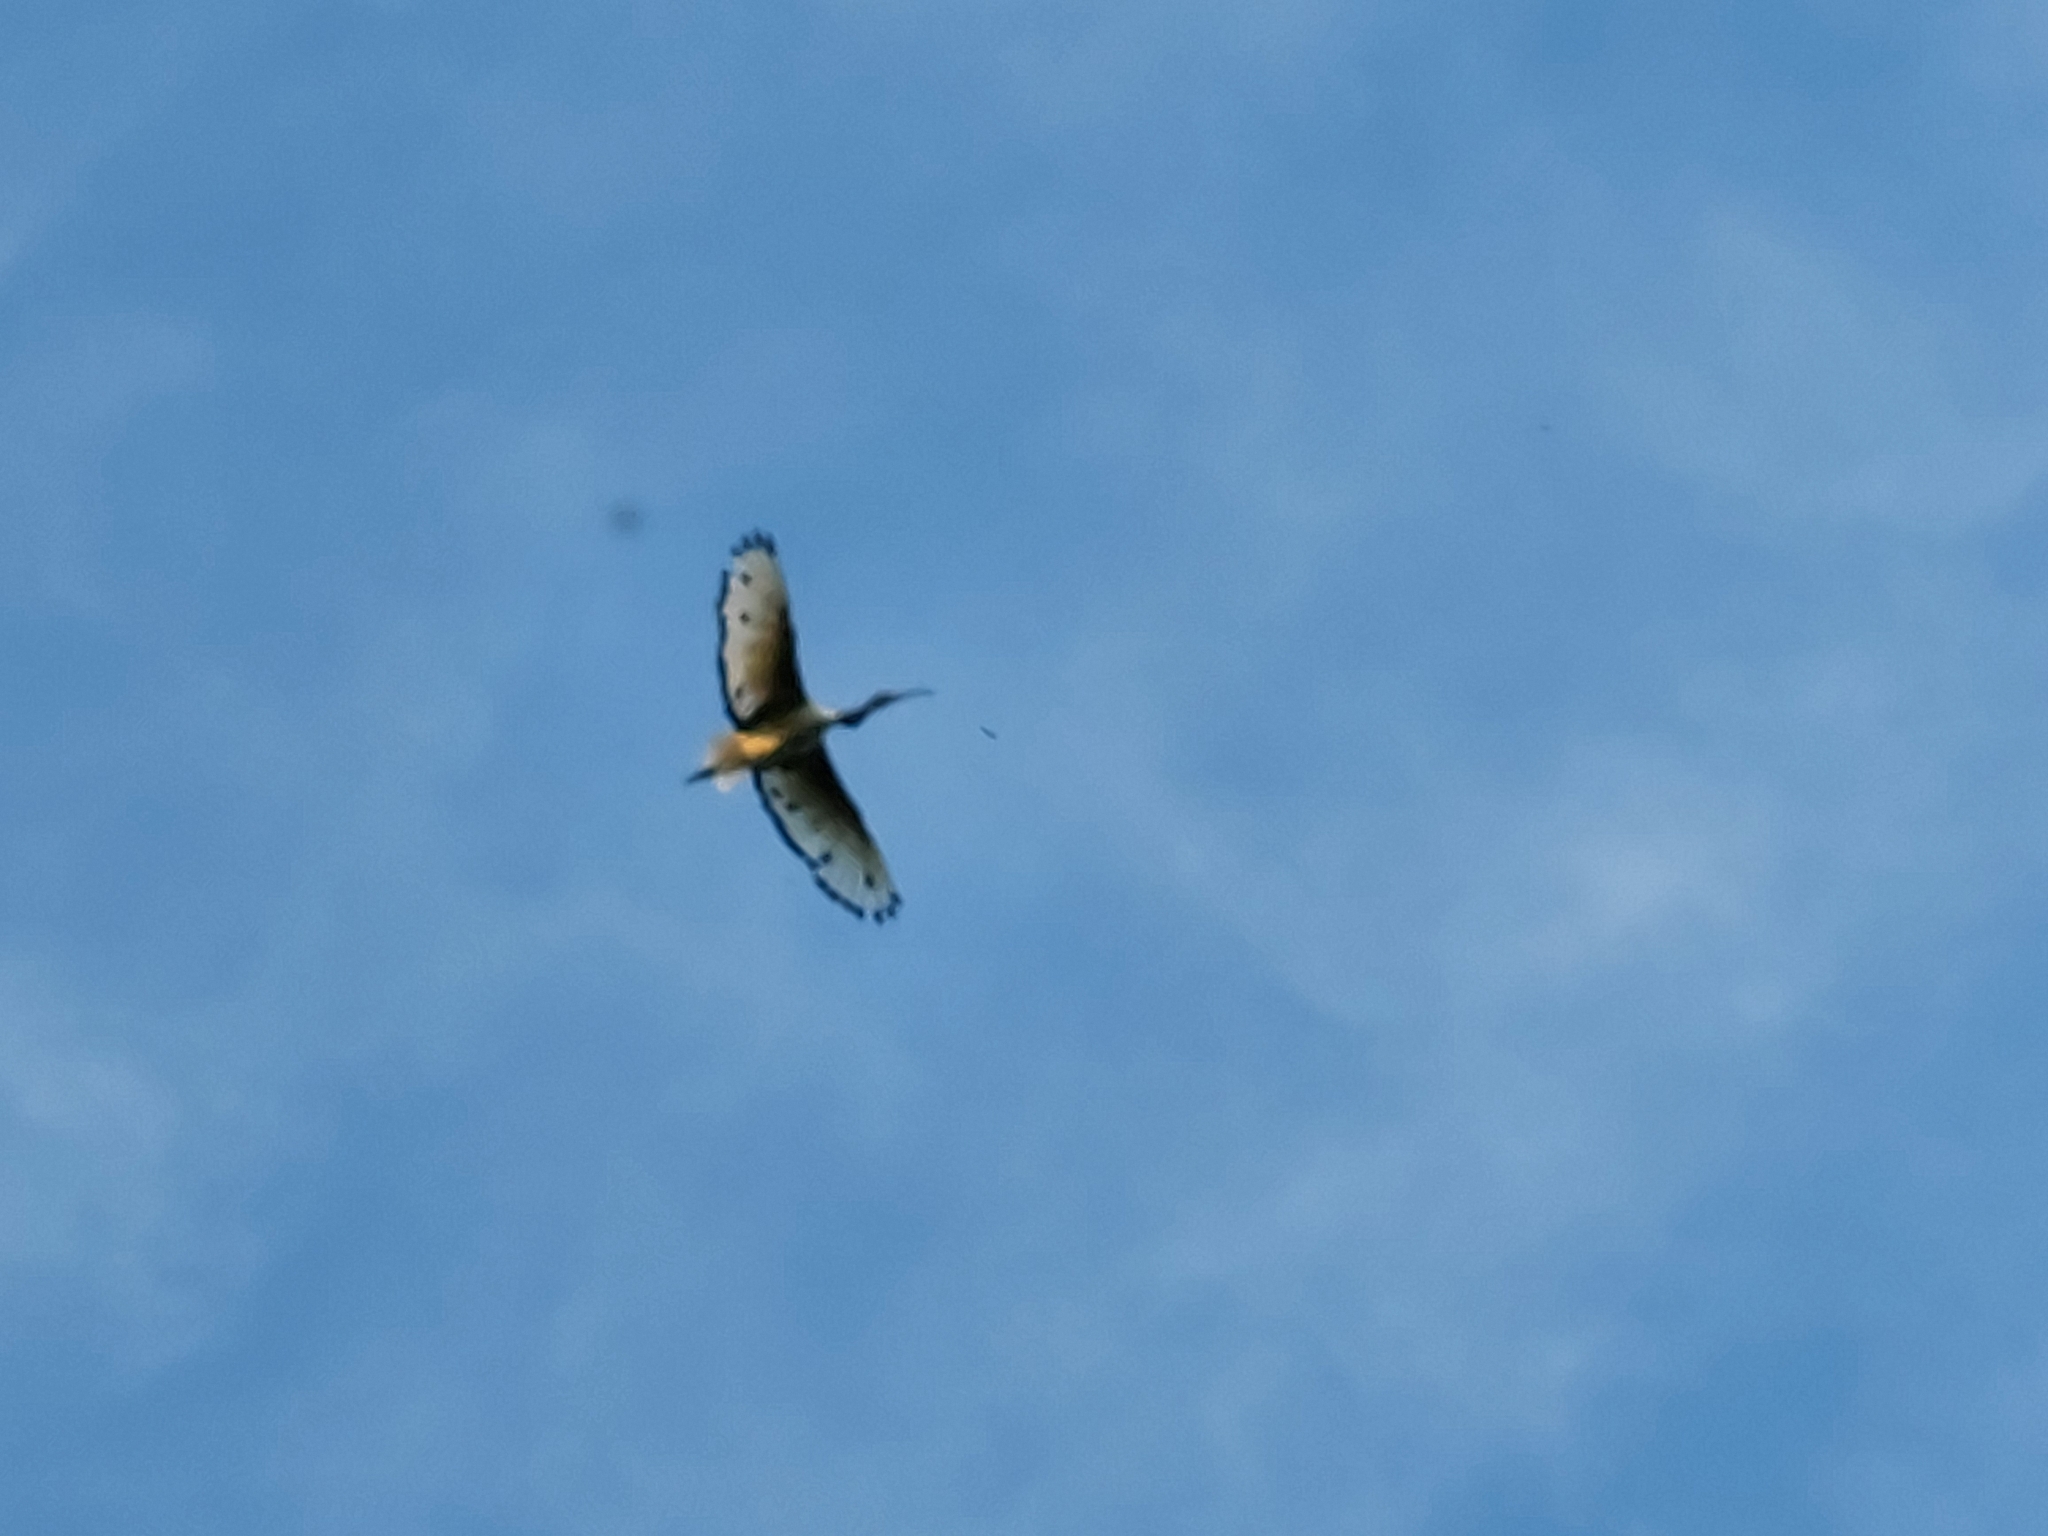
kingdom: Animalia
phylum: Chordata
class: Aves
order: Pelecaniformes
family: Threskiornithidae
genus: Threskiornis
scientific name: Threskiornis aethiopicus
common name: Sacred ibis
